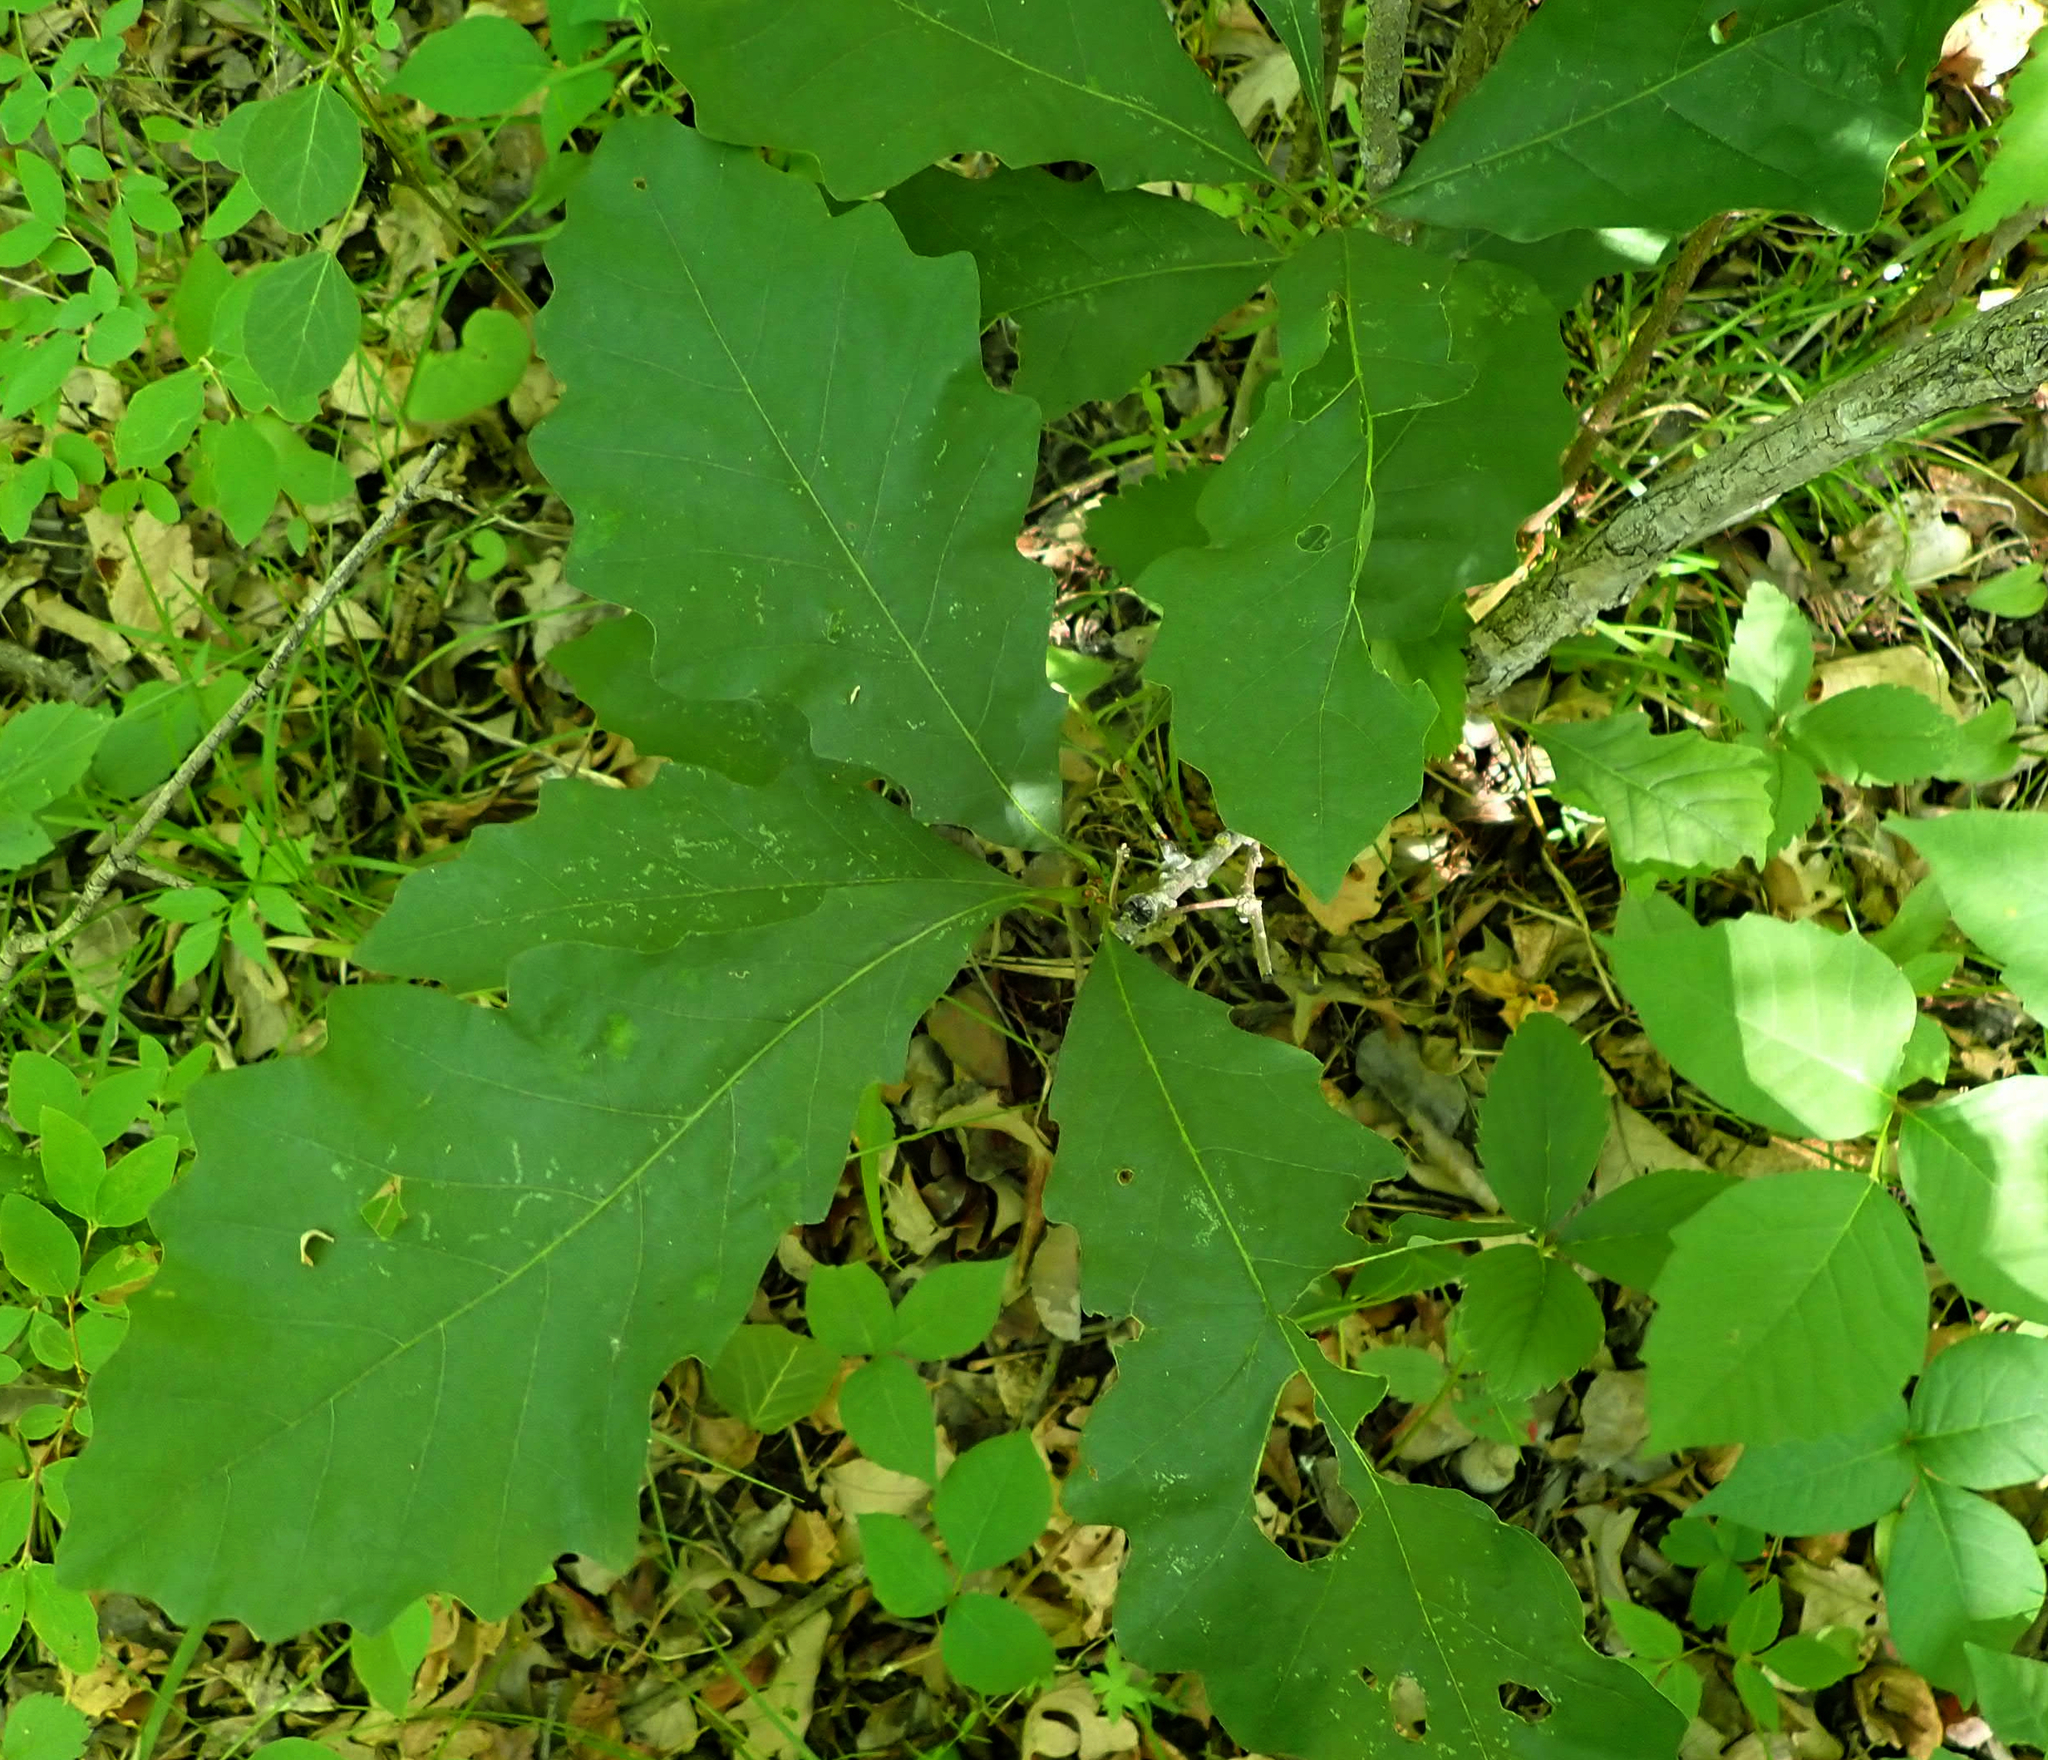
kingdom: Plantae
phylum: Tracheophyta
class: Magnoliopsida
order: Fagales
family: Fagaceae
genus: Quercus
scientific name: Quercus macrocarpa
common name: Bur oak
